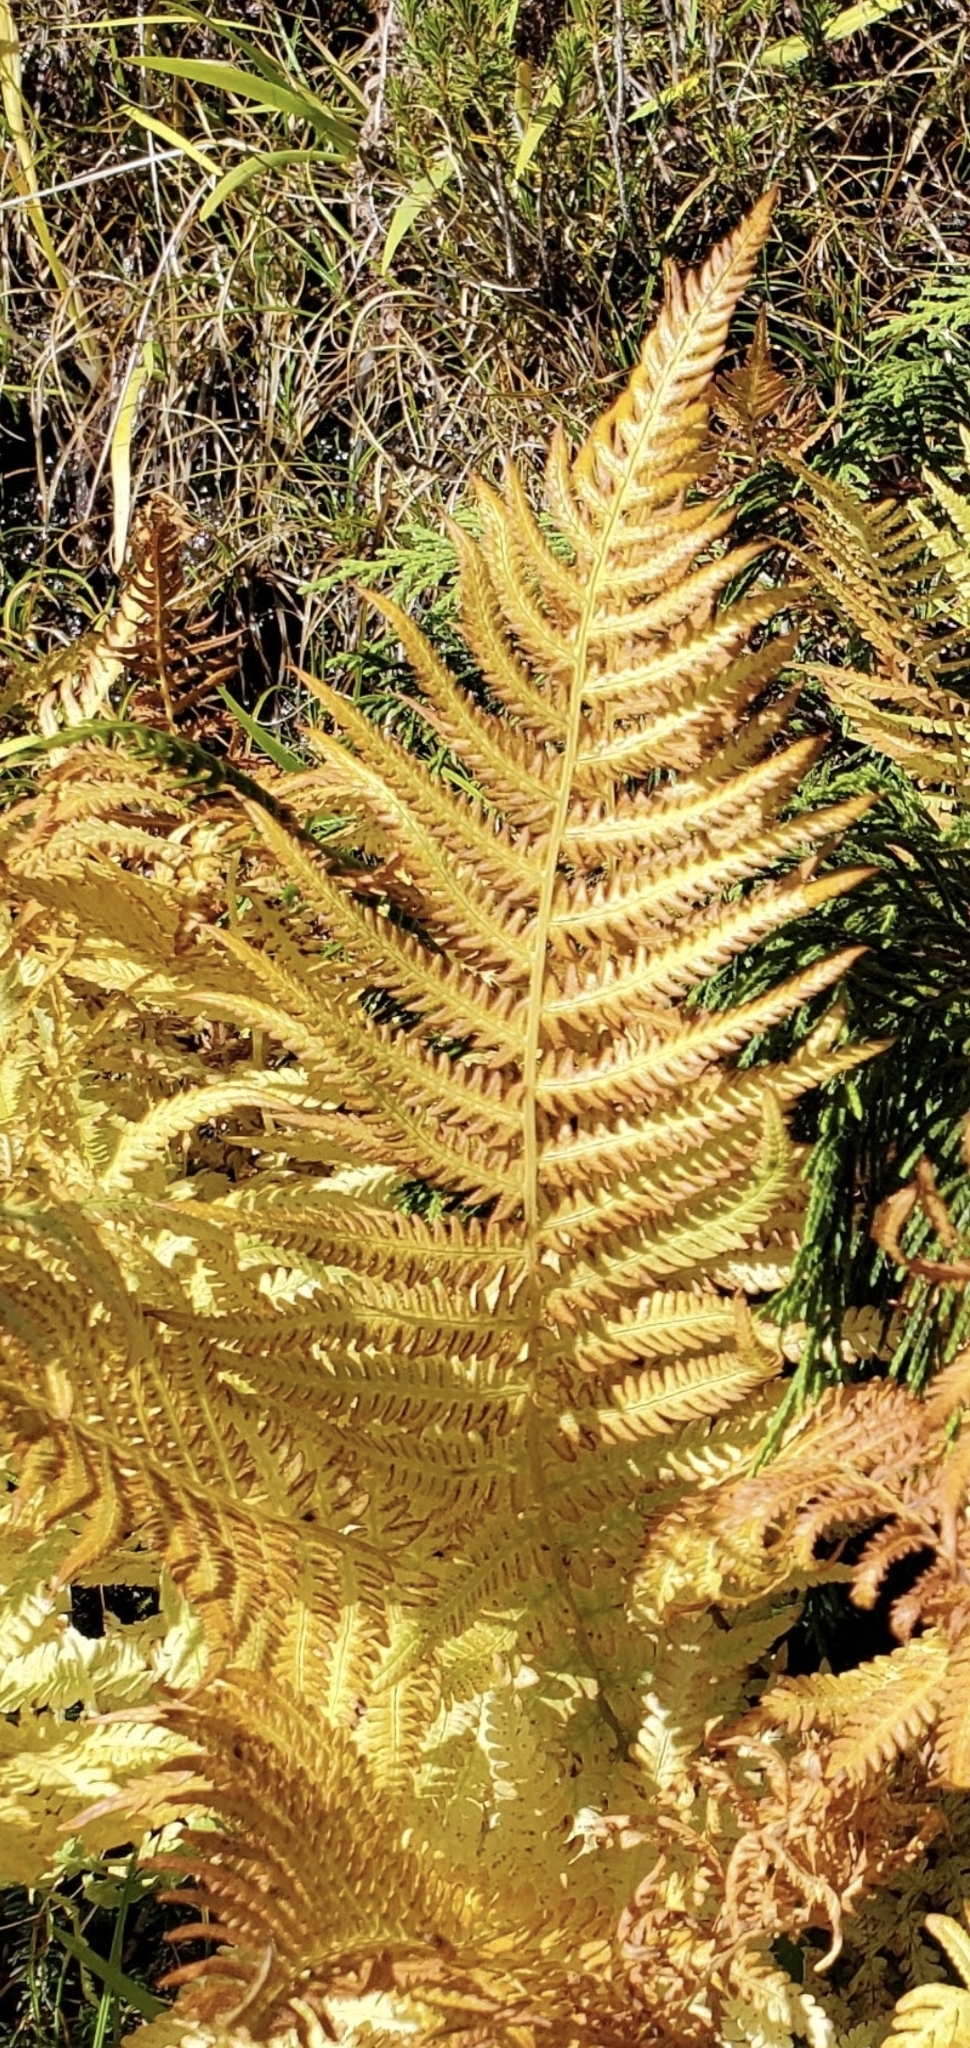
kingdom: Plantae
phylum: Tracheophyta
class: Polypodiopsida
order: Polypodiales
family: Thelypteridaceae
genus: Oreopteris
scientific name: Oreopteris quelpartensis
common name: Mountain fern
